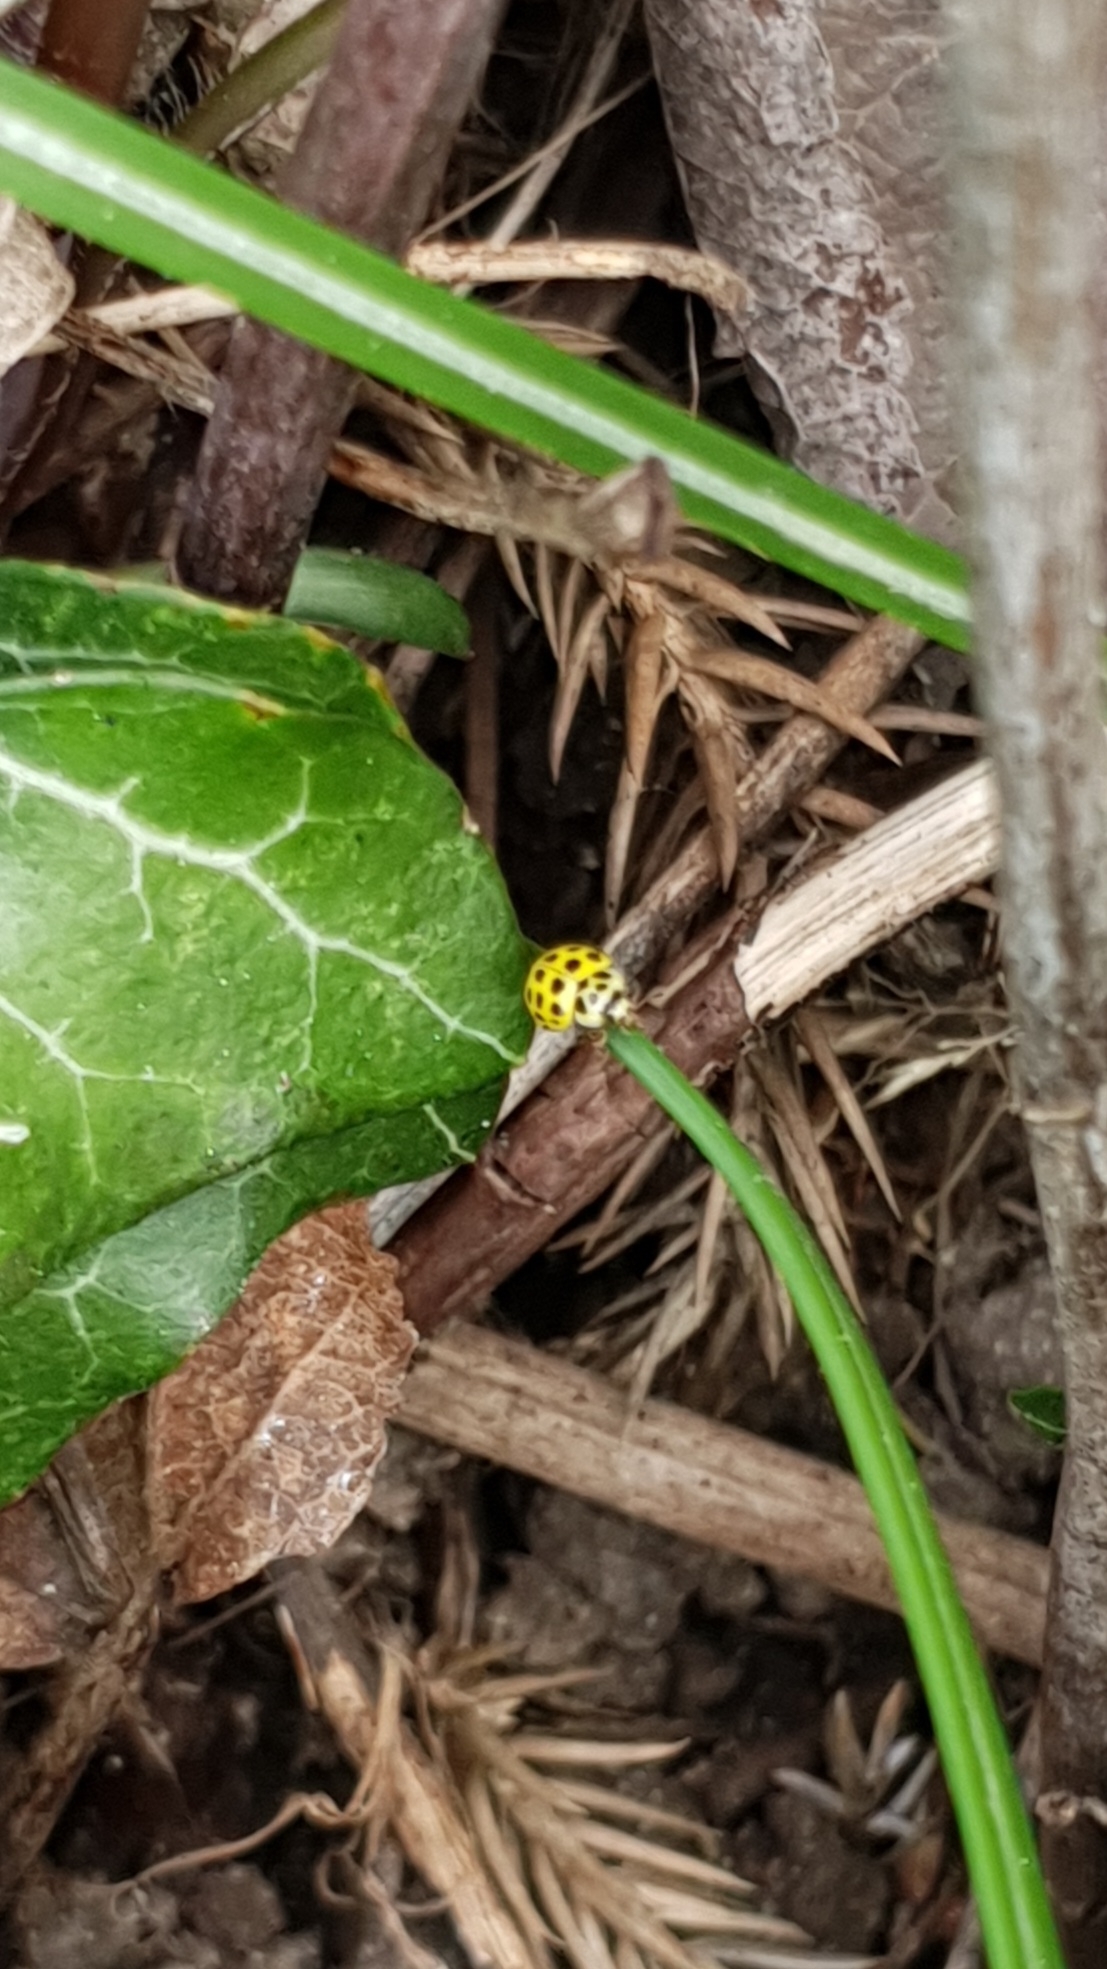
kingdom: Animalia
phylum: Arthropoda
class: Insecta
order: Coleoptera
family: Coccinellidae
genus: Psyllobora
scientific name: Psyllobora vigintiduopunctata
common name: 22-spot ladybird
